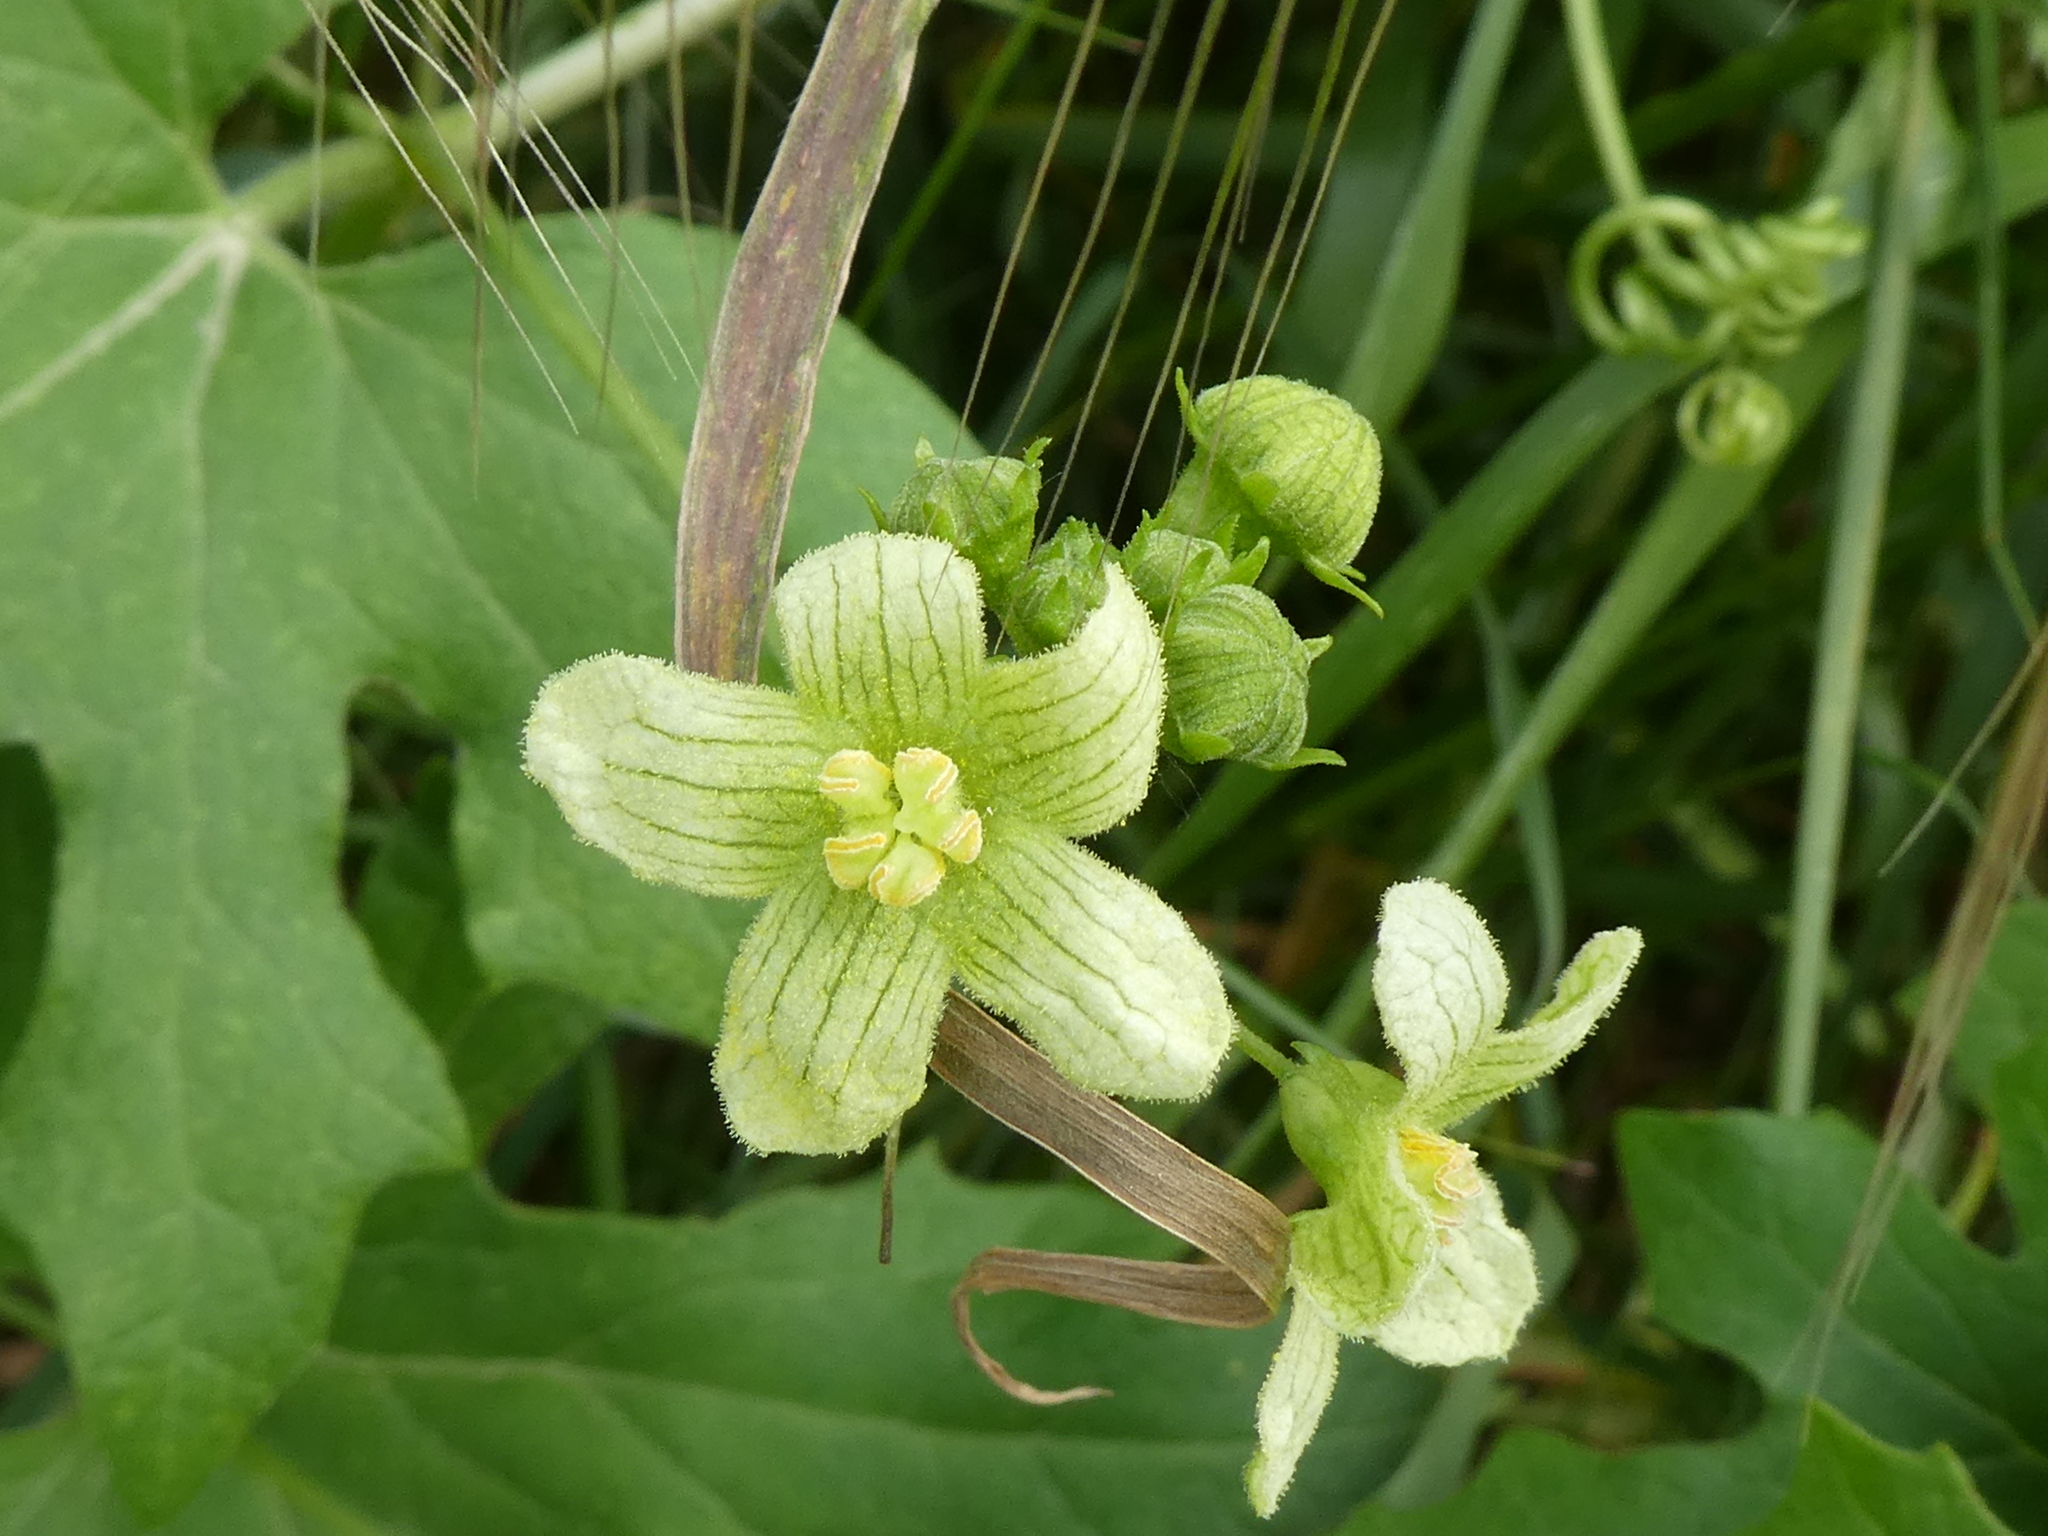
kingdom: Plantae
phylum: Tracheophyta
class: Magnoliopsida
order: Cucurbitales
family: Cucurbitaceae
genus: Bryonia
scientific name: Bryonia cretica
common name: Cretan bryony
